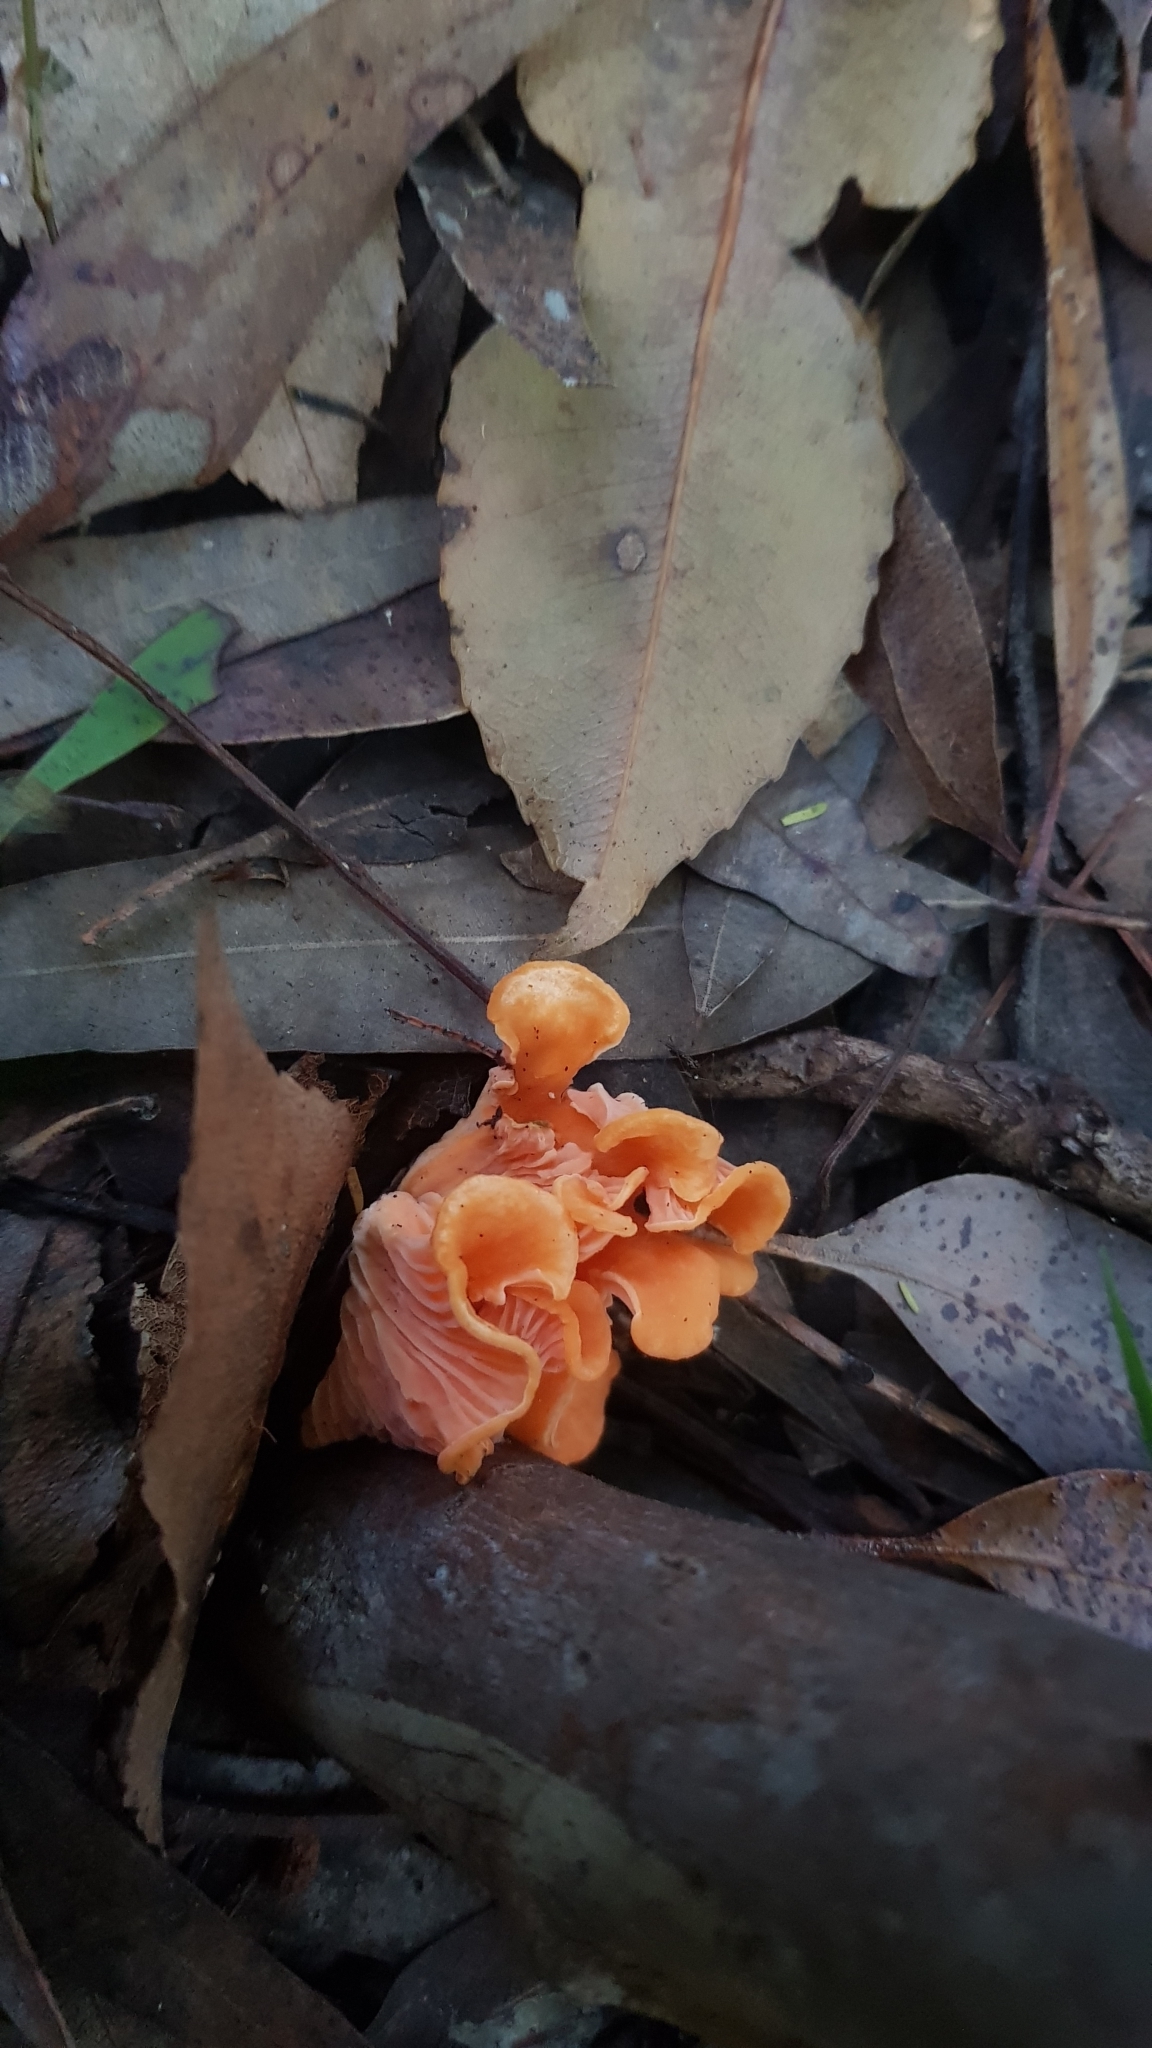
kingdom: Fungi
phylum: Basidiomycota
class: Agaricomycetes
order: Cantharellales
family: Hydnaceae
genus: Cantharellus
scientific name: Cantharellus
